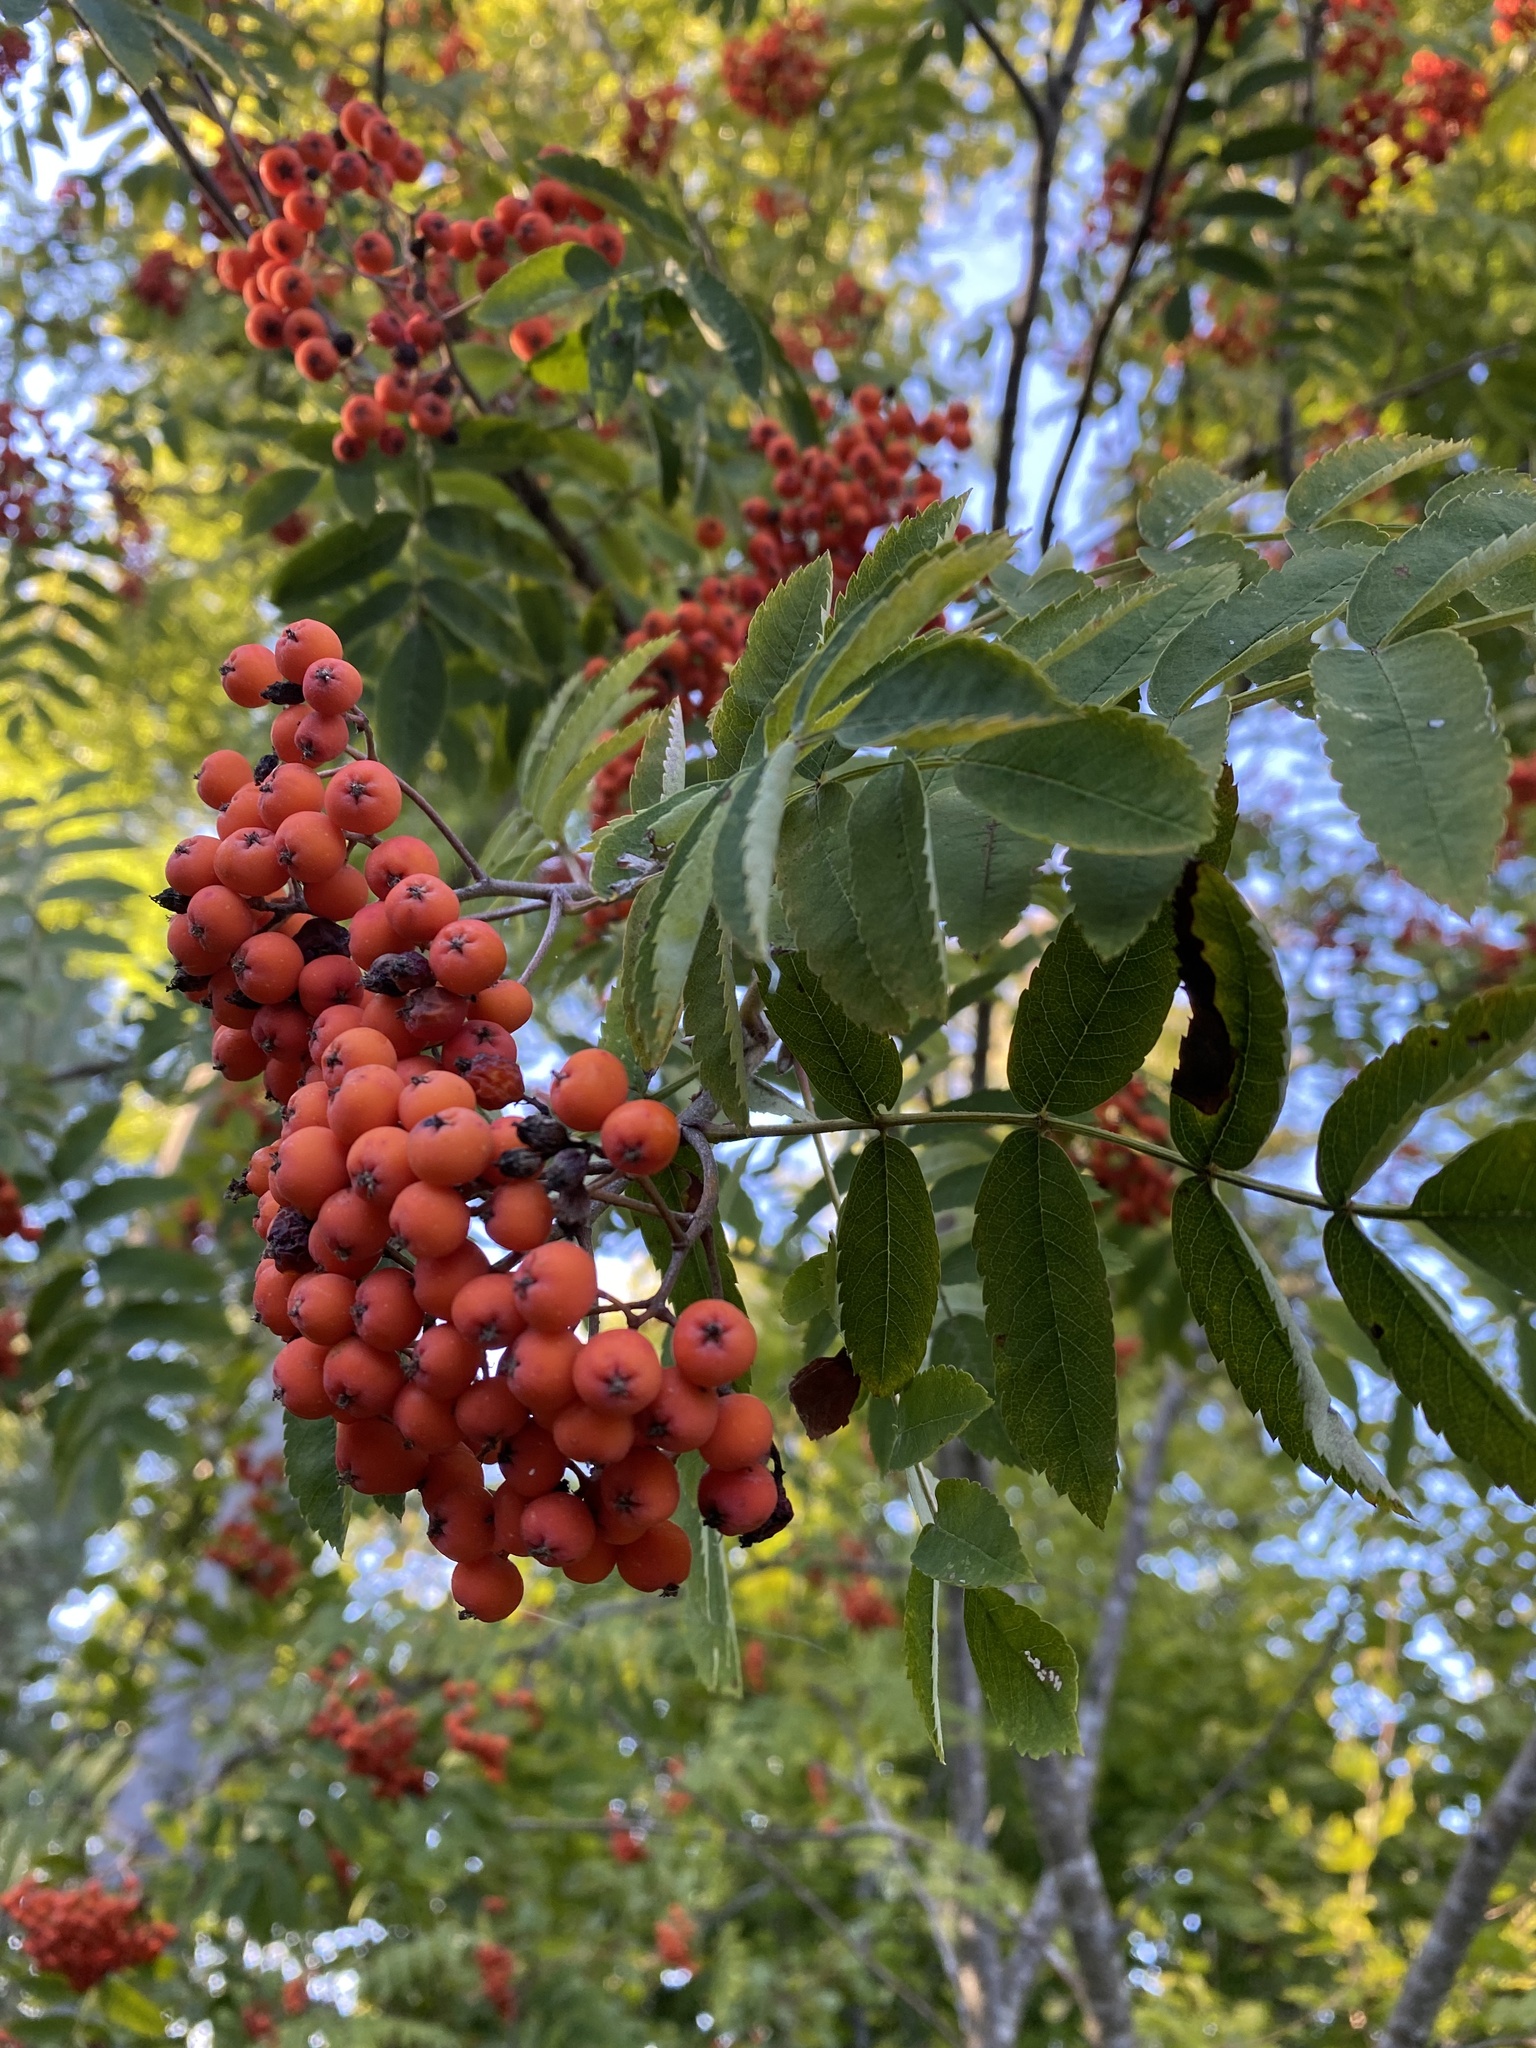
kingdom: Plantae
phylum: Tracheophyta
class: Magnoliopsida
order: Rosales
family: Rosaceae
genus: Sorbus
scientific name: Sorbus aucuparia
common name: Rowan
